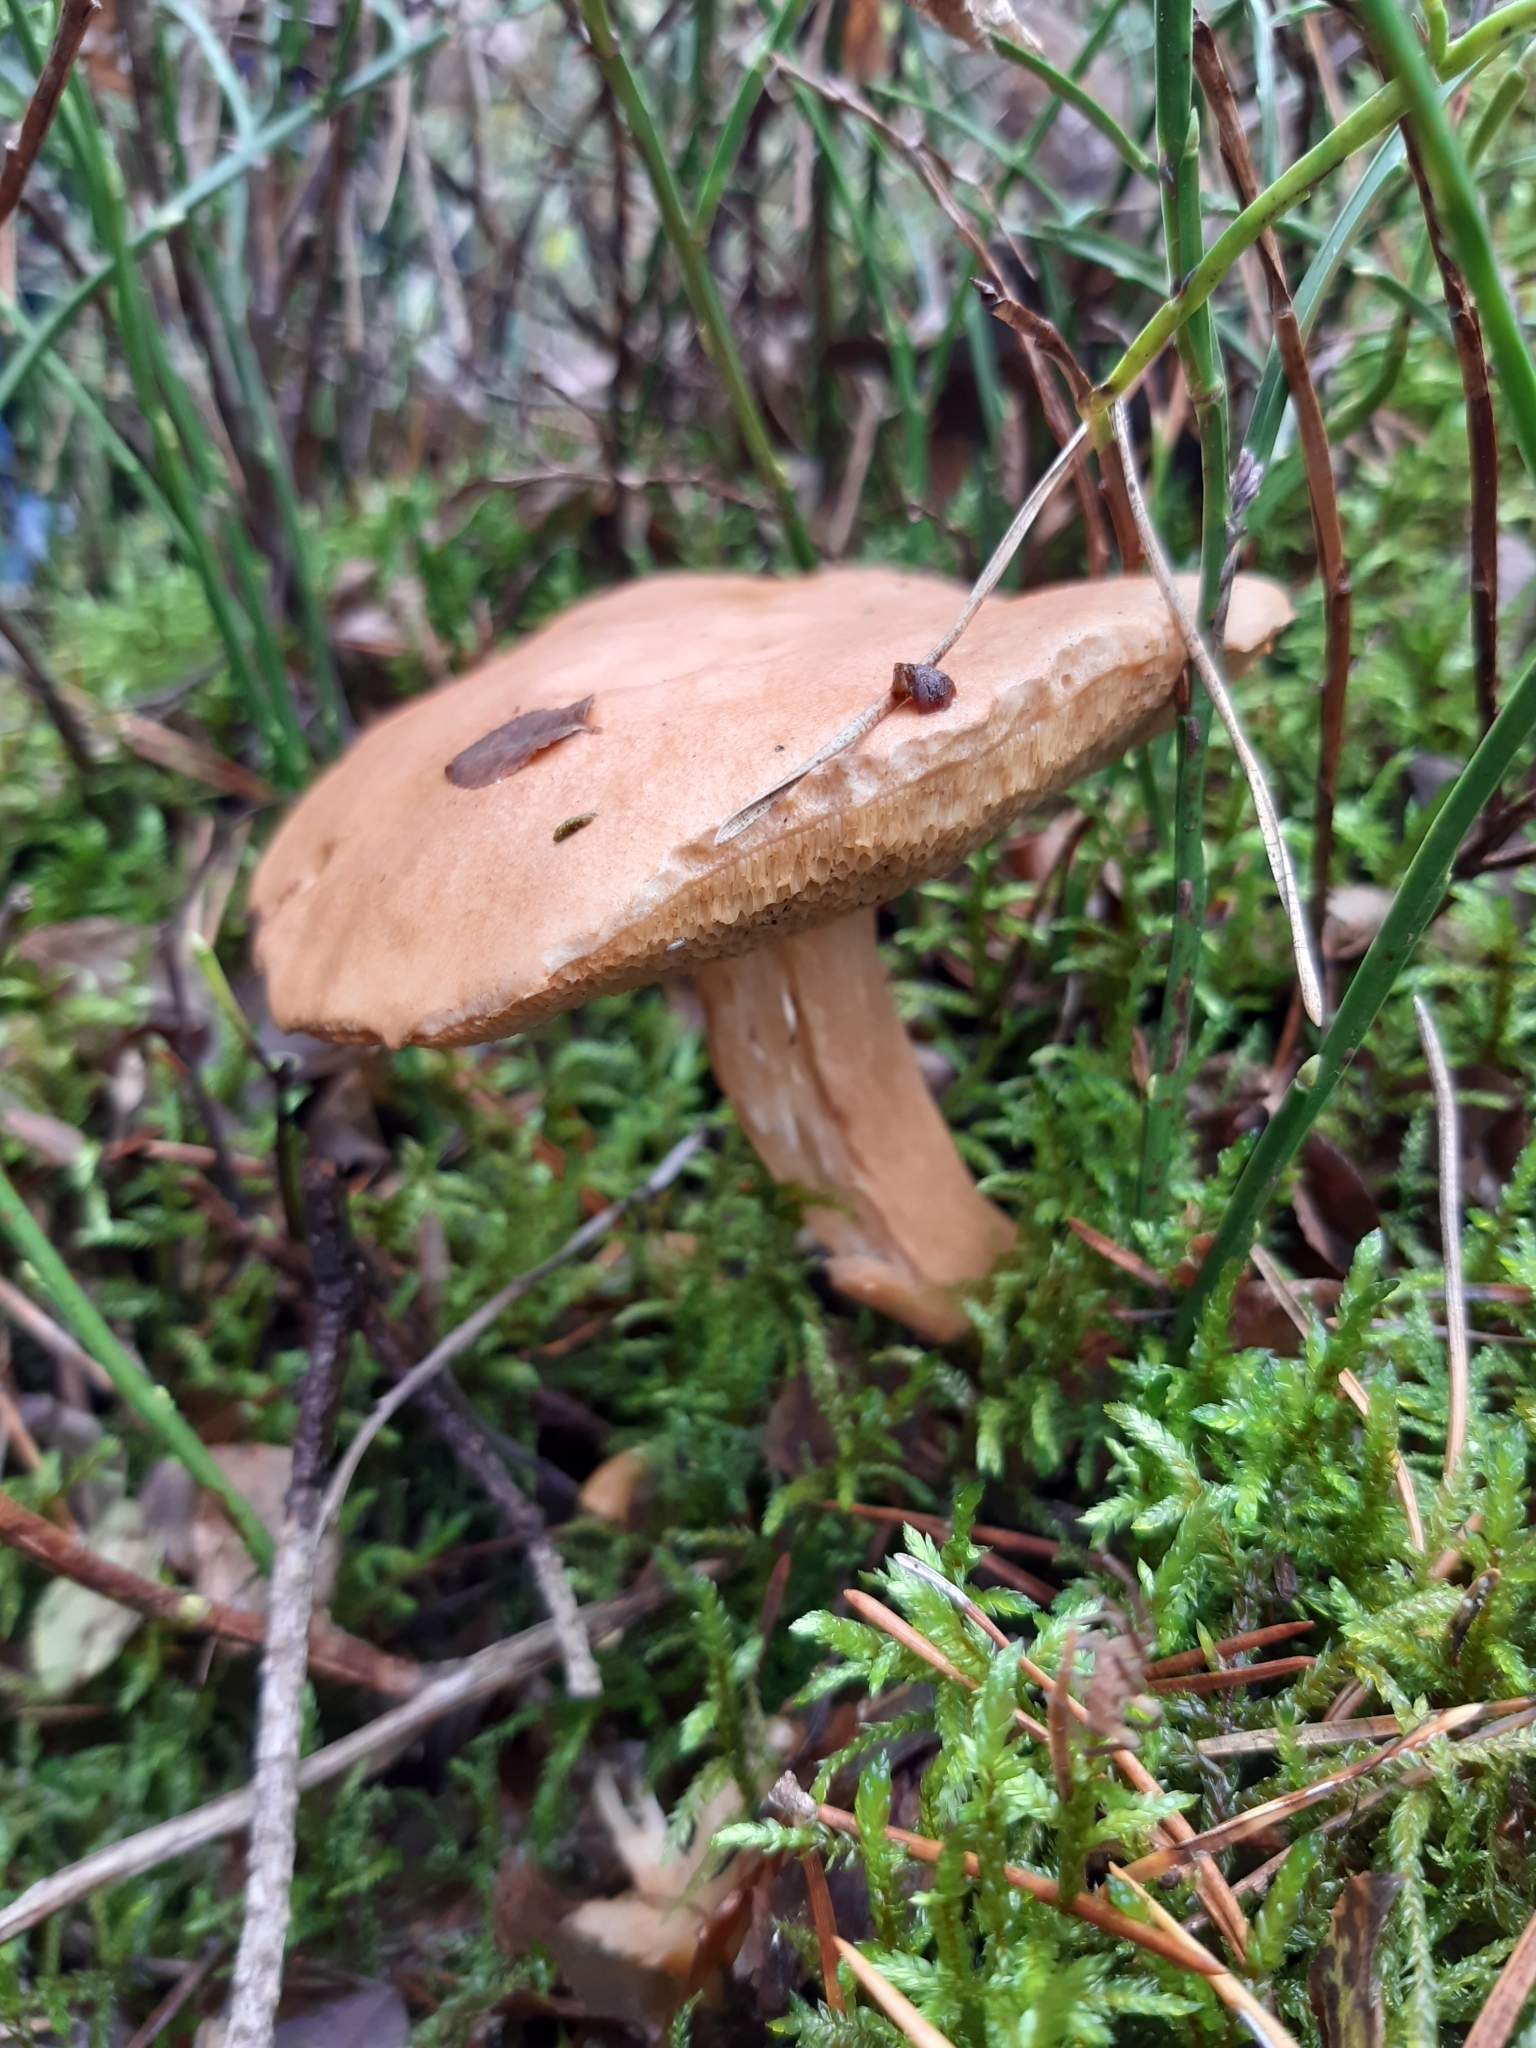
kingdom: Fungi
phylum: Basidiomycota
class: Agaricomycetes
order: Boletales
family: Suillaceae
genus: Suillus
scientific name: Suillus bovinus
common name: Bovine bolete
